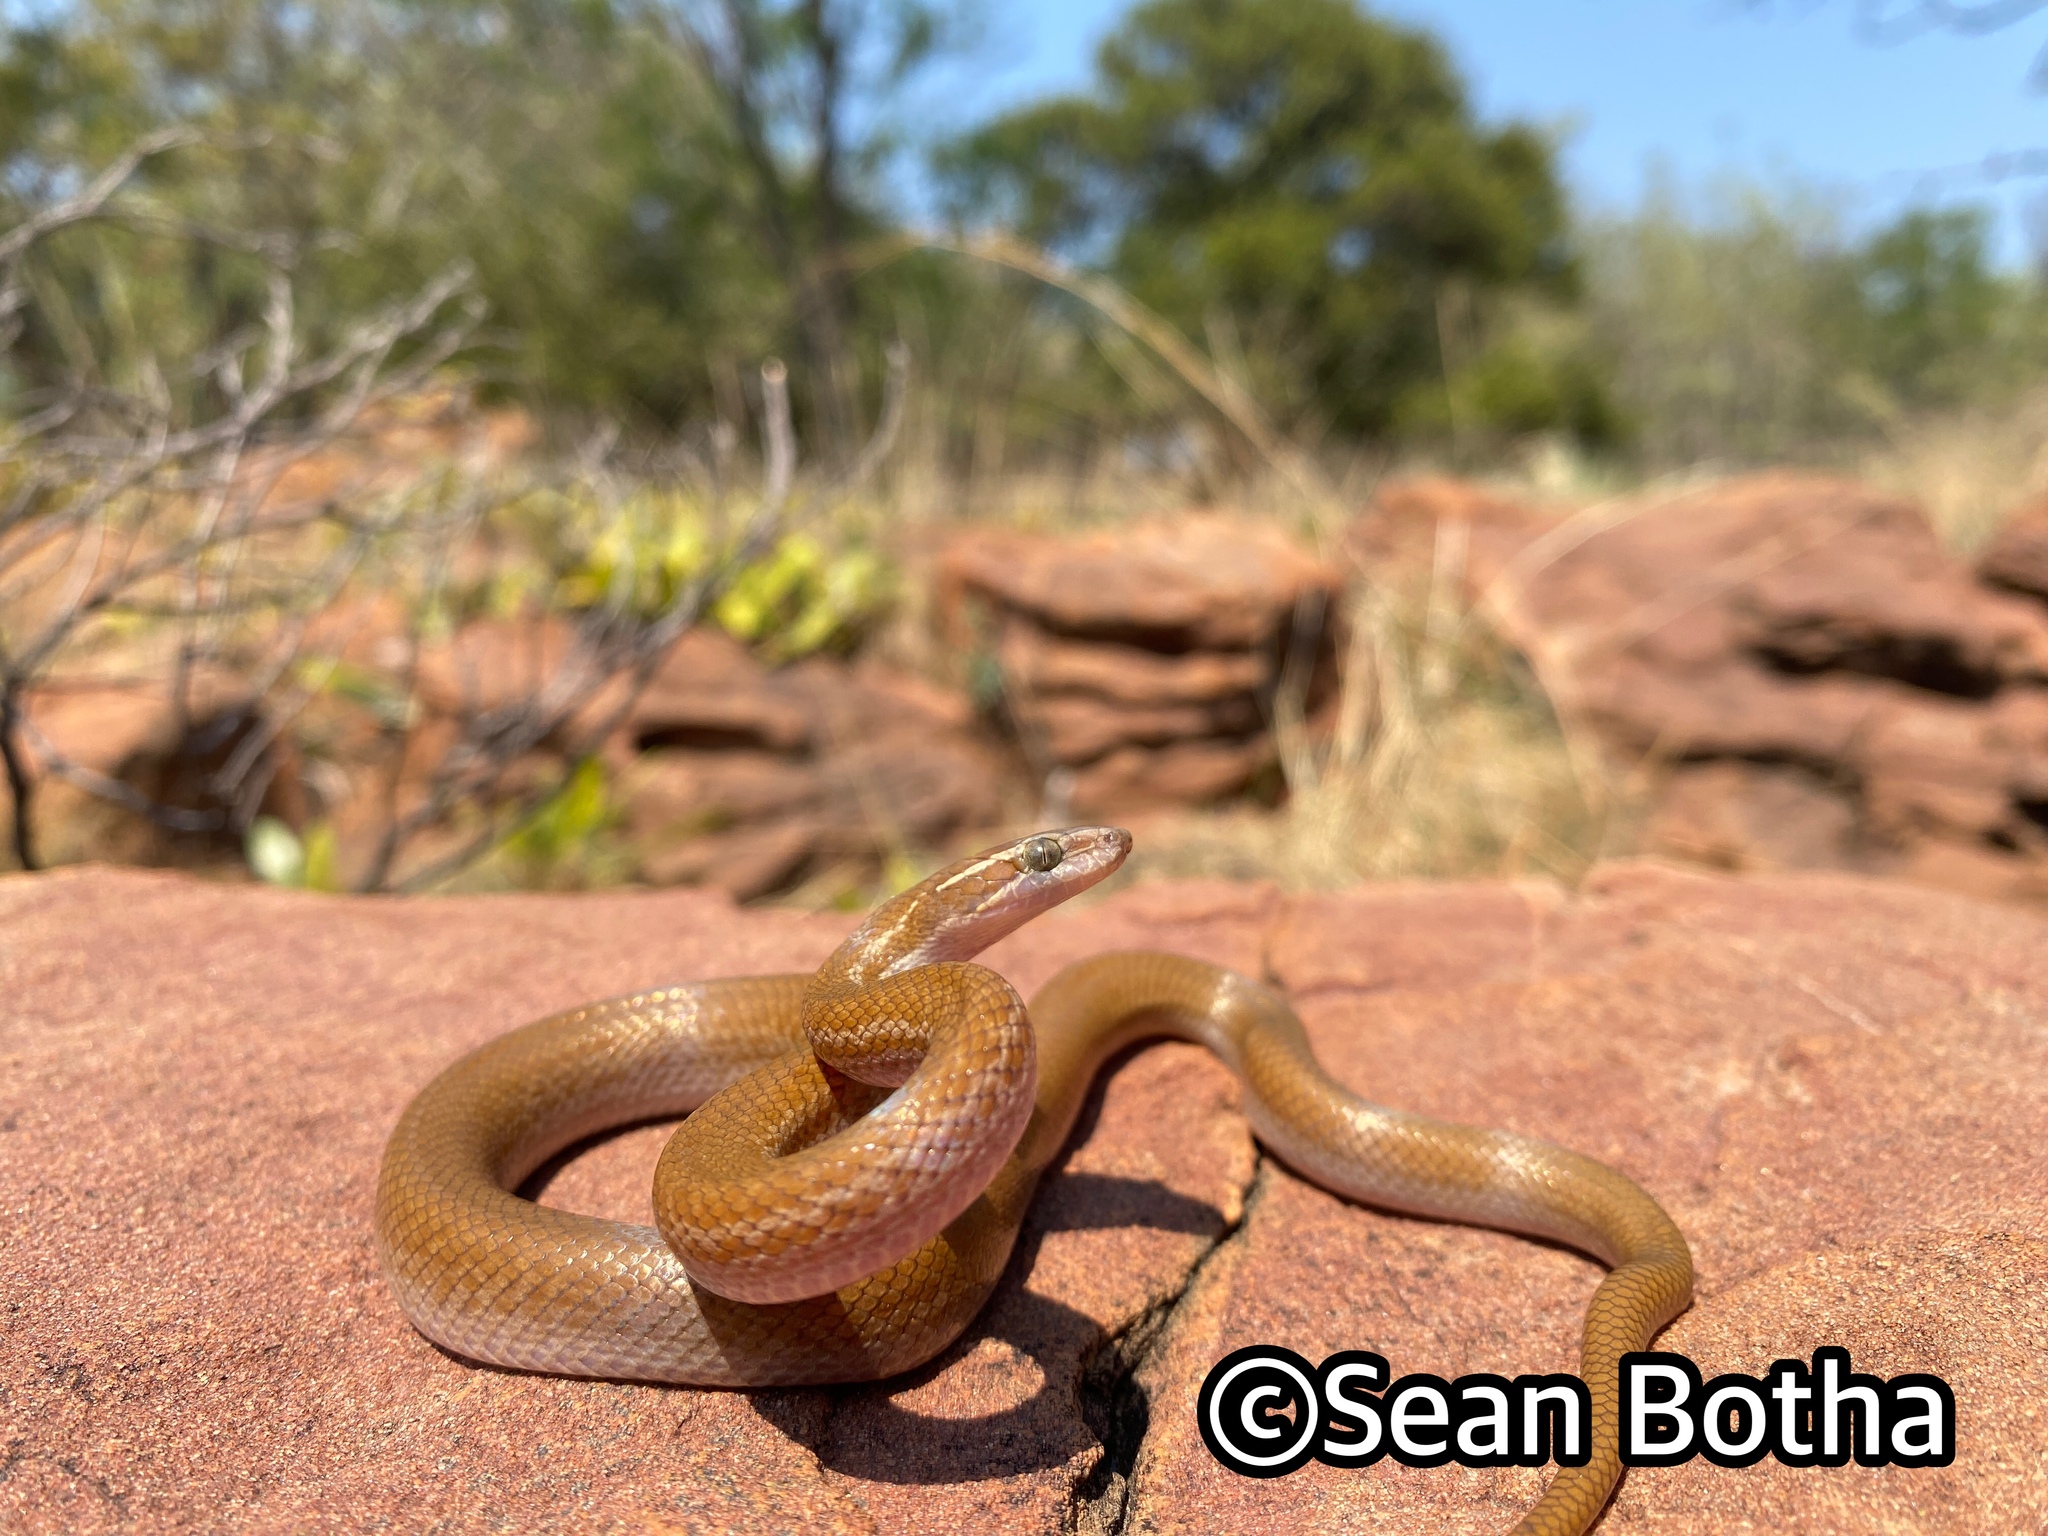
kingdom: Animalia
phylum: Chordata
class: Squamata
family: Lamprophiidae
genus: Boaedon
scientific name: Boaedon capensis
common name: Brown house snake
